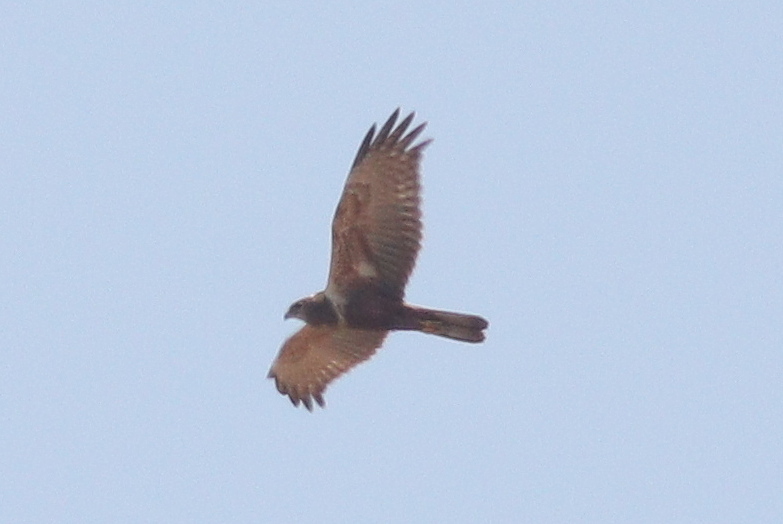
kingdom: Animalia
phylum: Chordata
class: Aves
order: Accipitriformes
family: Accipitridae
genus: Circus
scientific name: Circus ranivorus
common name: African marsh-harrier
